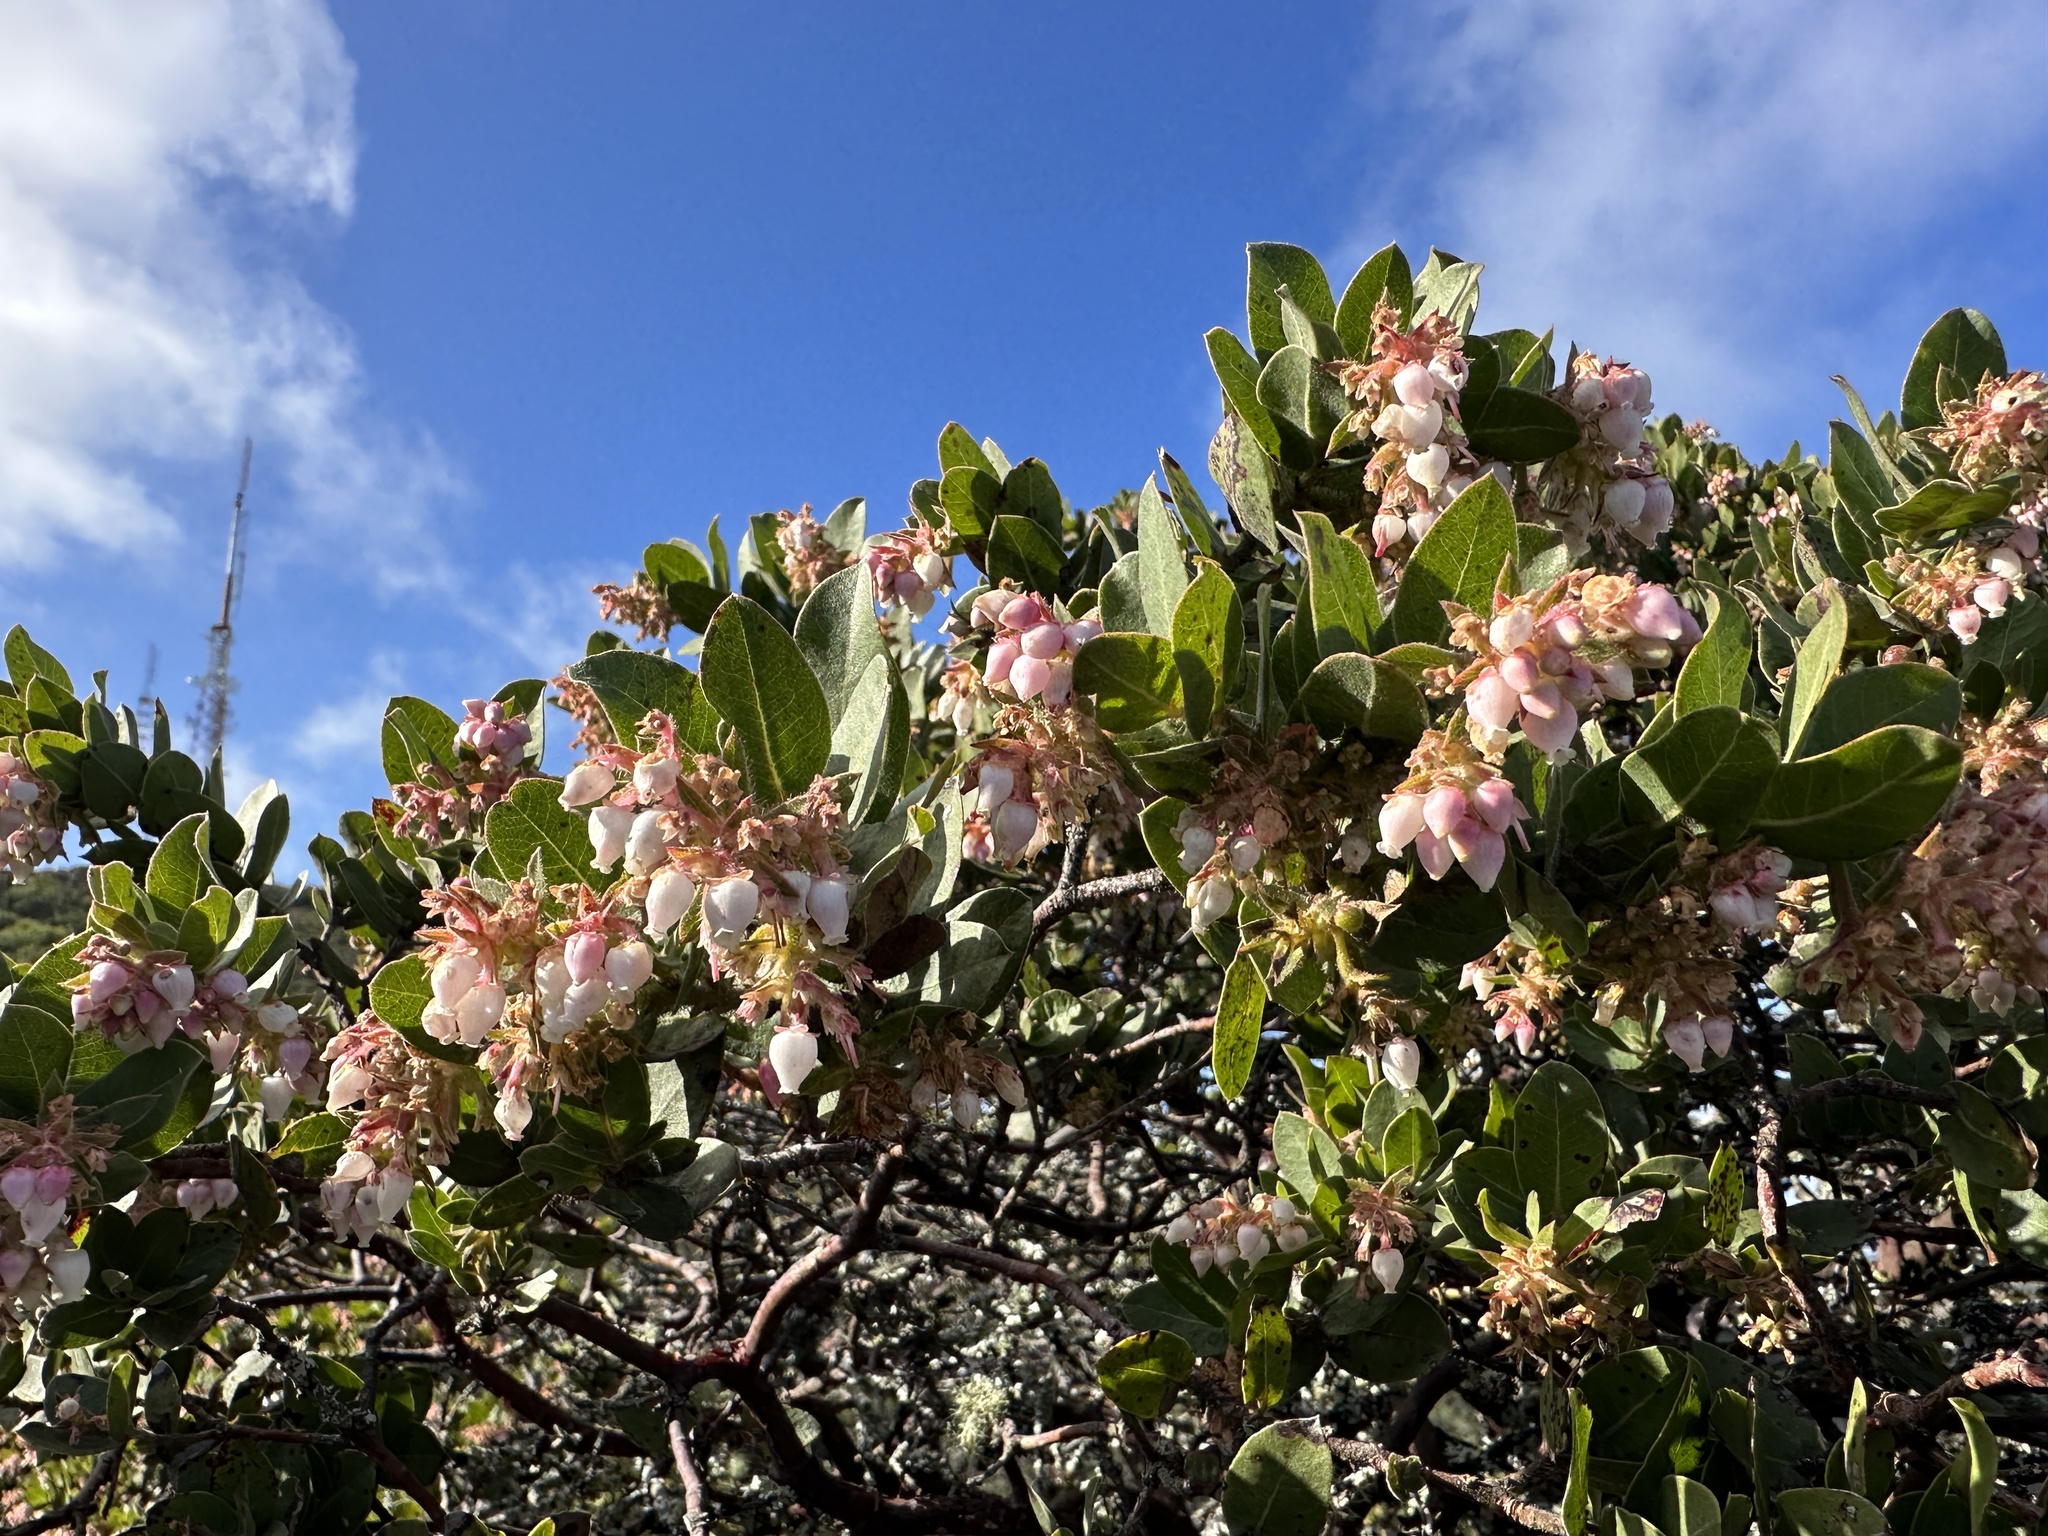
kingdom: Plantae
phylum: Tracheophyta
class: Magnoliopsida
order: Ericales
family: Ericaceae
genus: Arctostaphylos
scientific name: Arctostaphylos montaraensis
